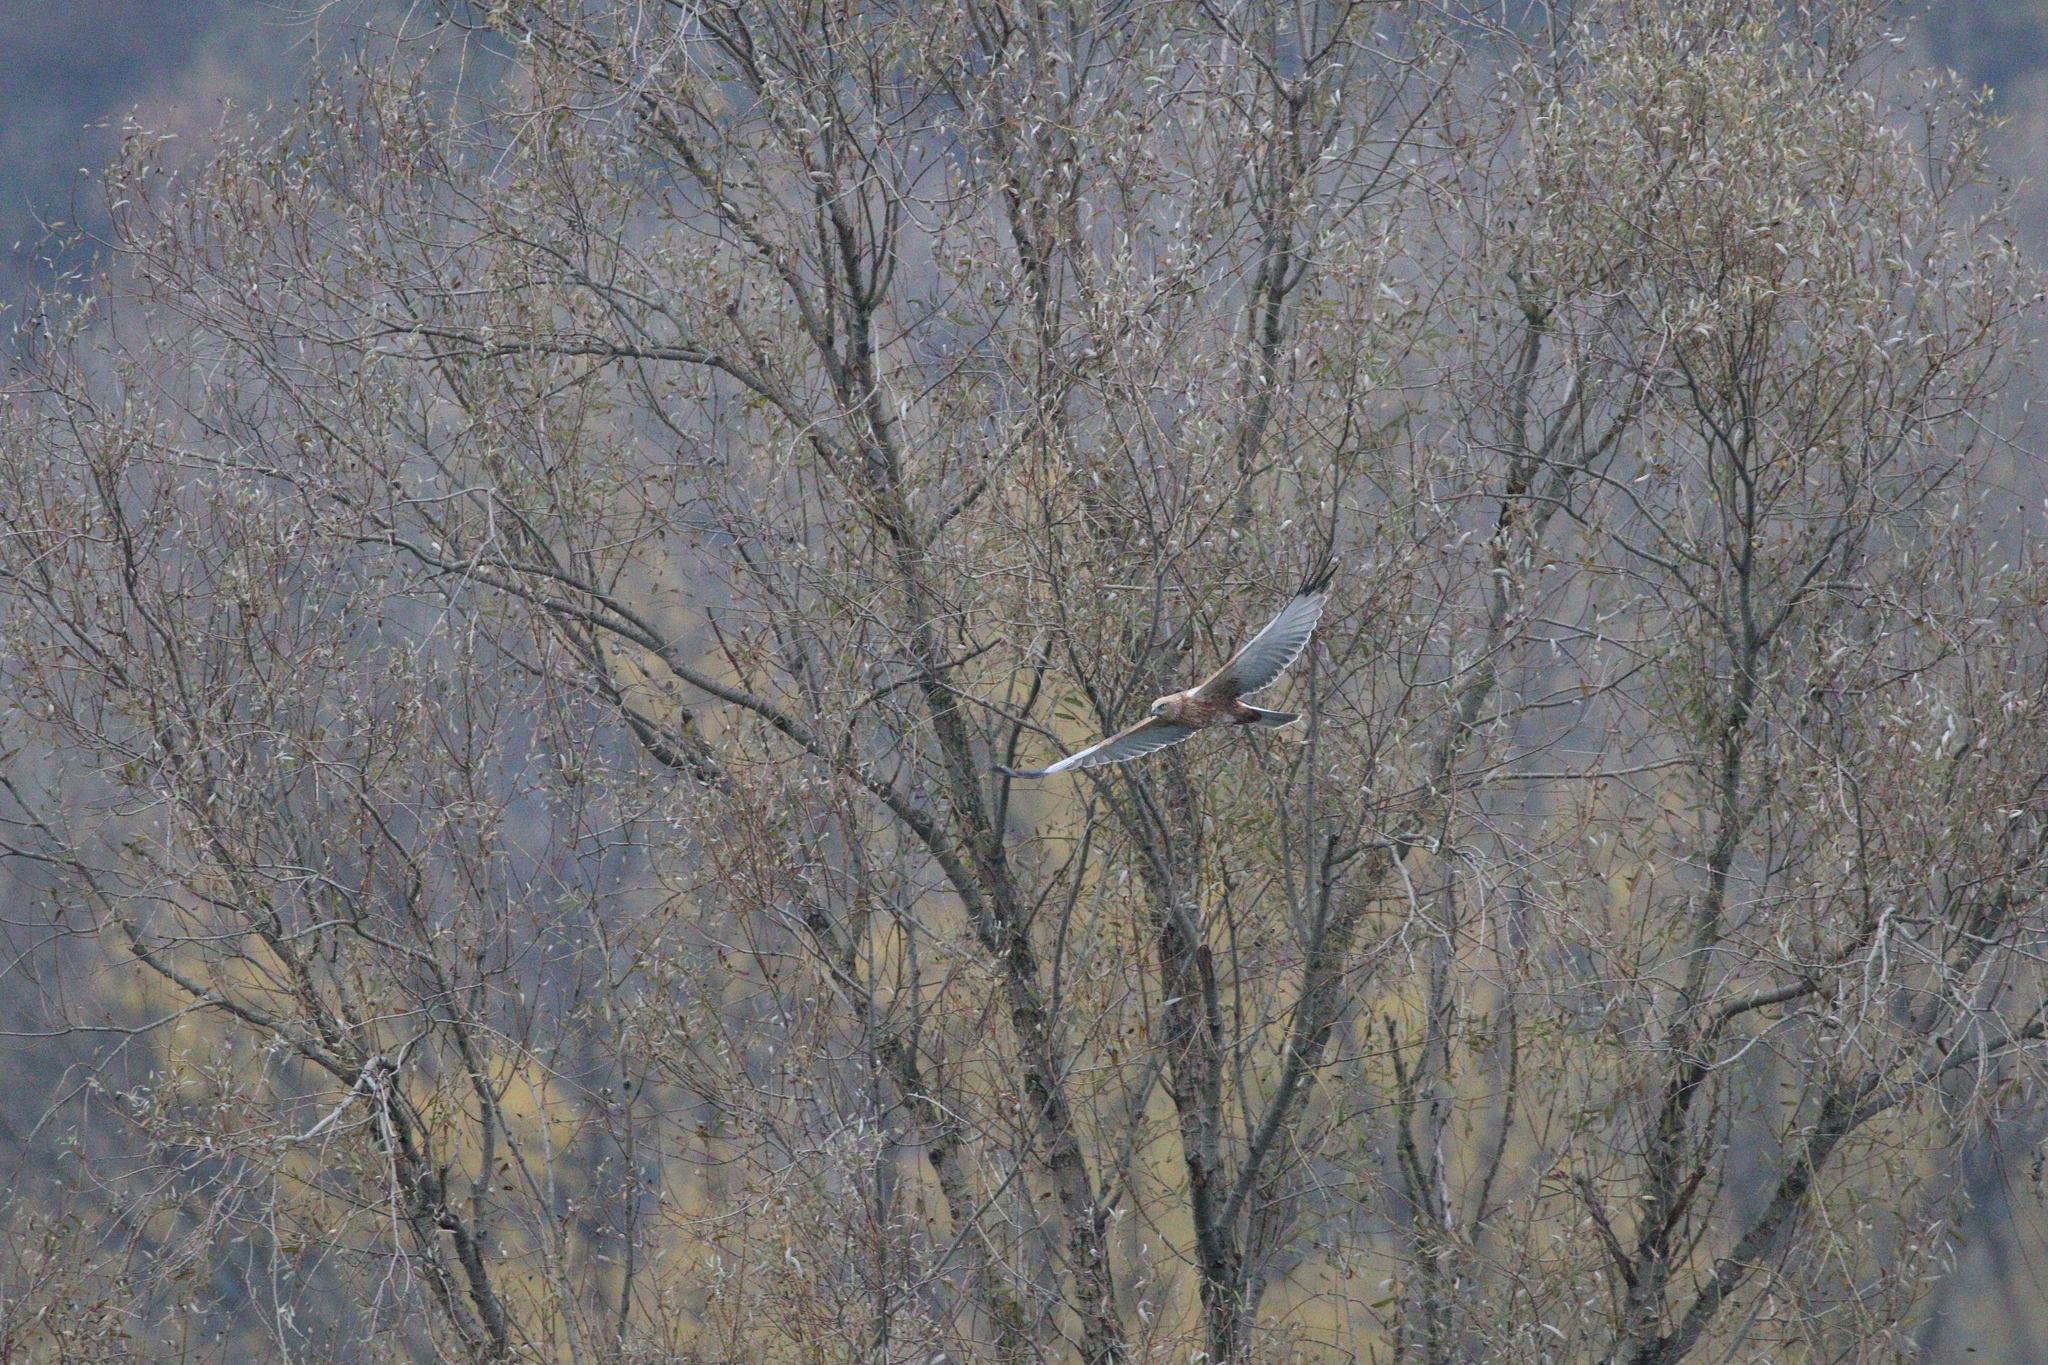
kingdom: Animalia
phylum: Chordata
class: Aves
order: Accipitriformes
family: Accipitridae
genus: Circus
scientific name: Circus aeruginosus
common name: Western marsh harrier
